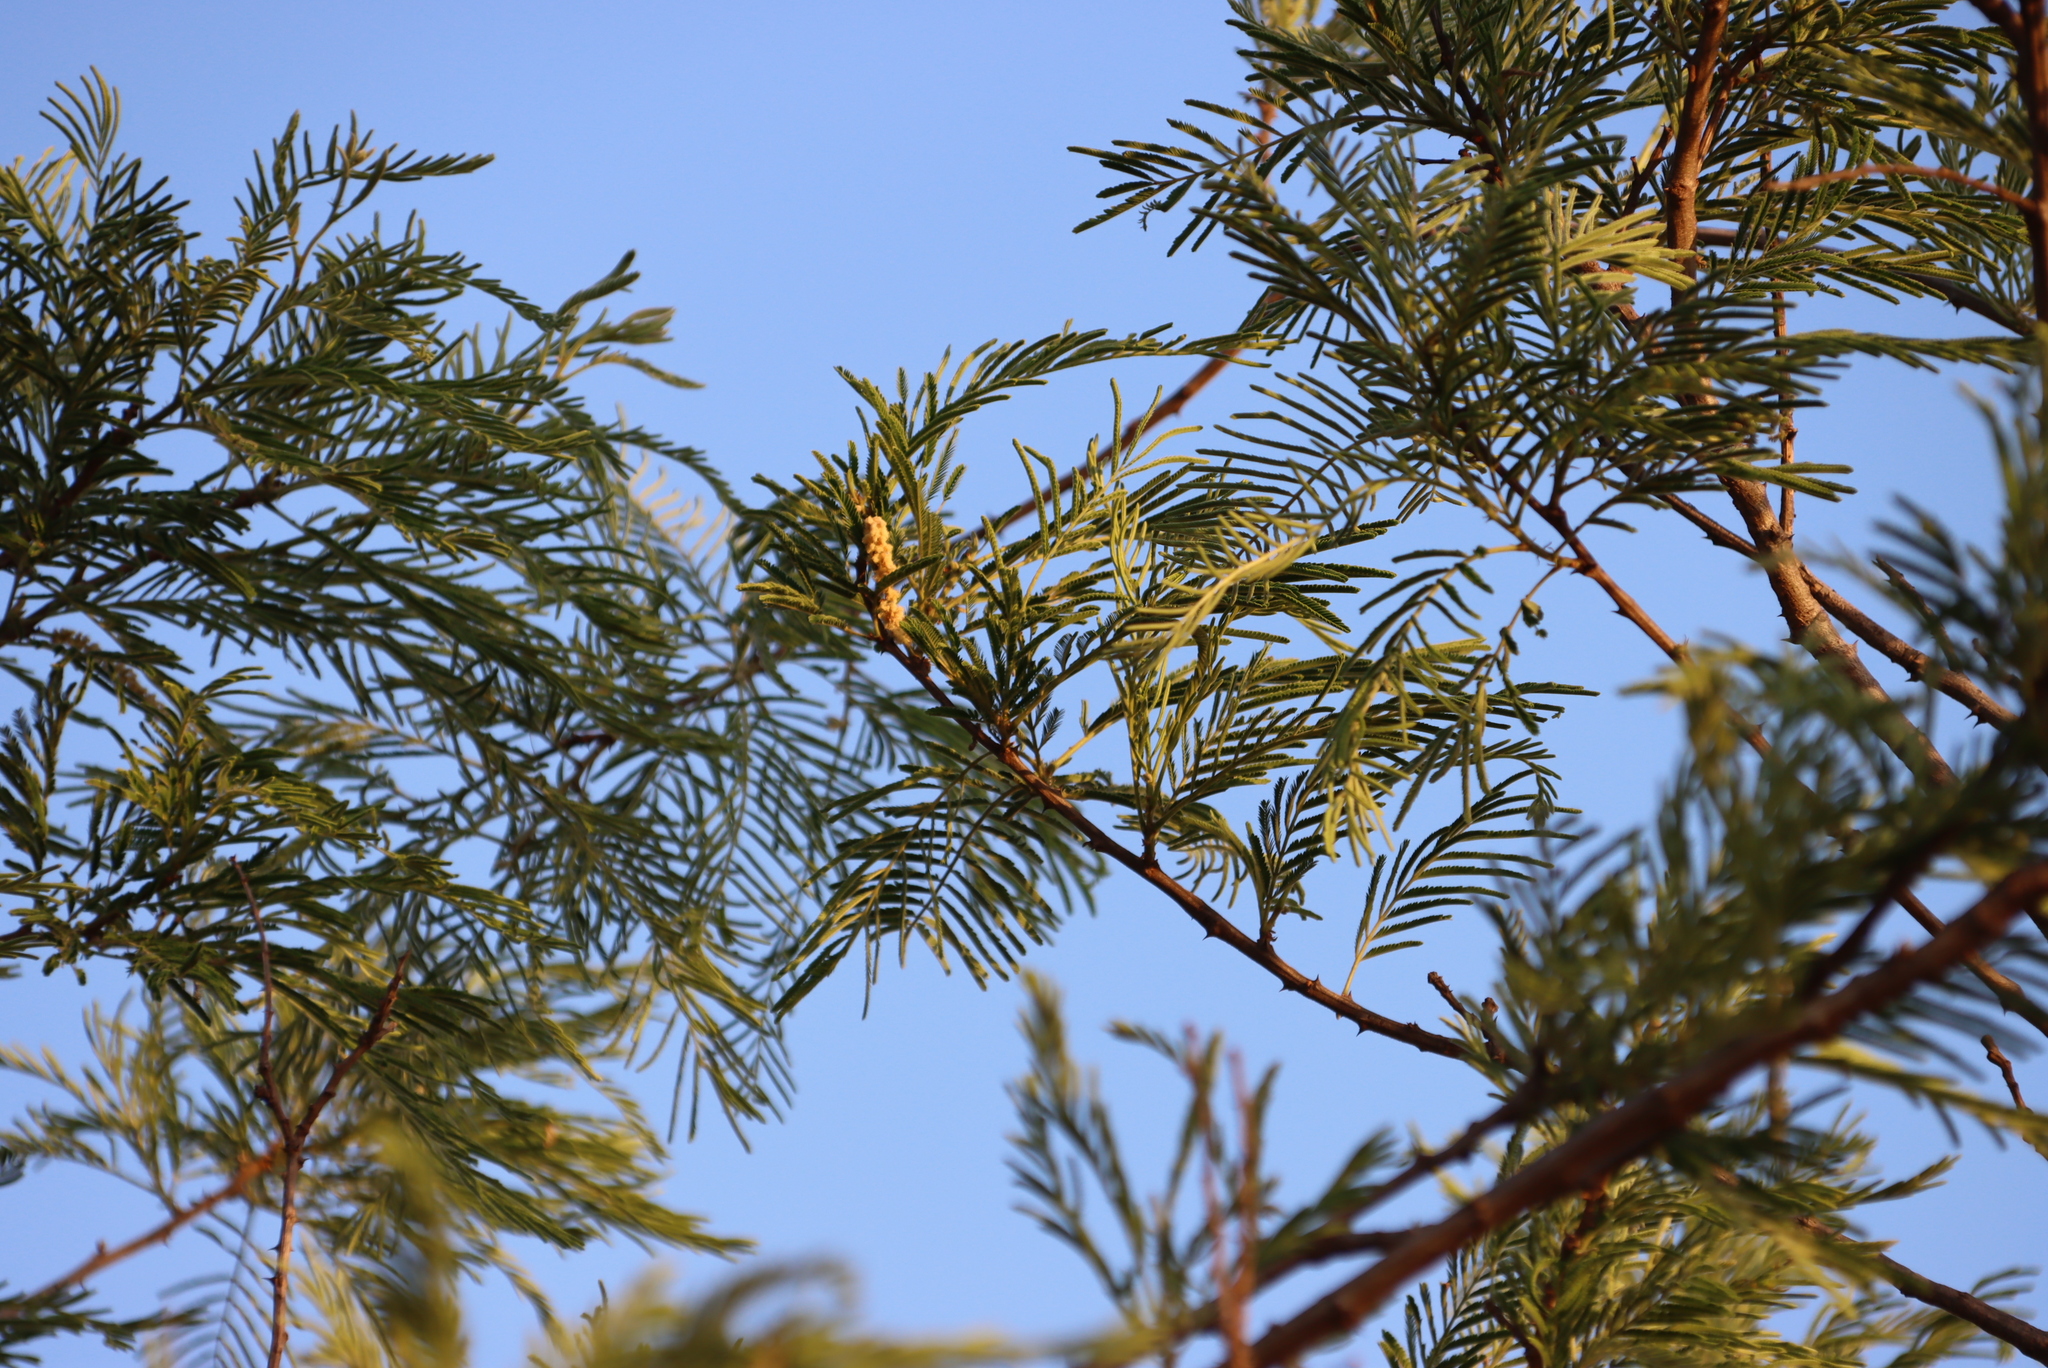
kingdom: Plantae
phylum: Tracheophyta
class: Magnoliopsida
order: Fabales
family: Fabaceae
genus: Acacia
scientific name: Acacia mearnsii
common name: Black wattle
